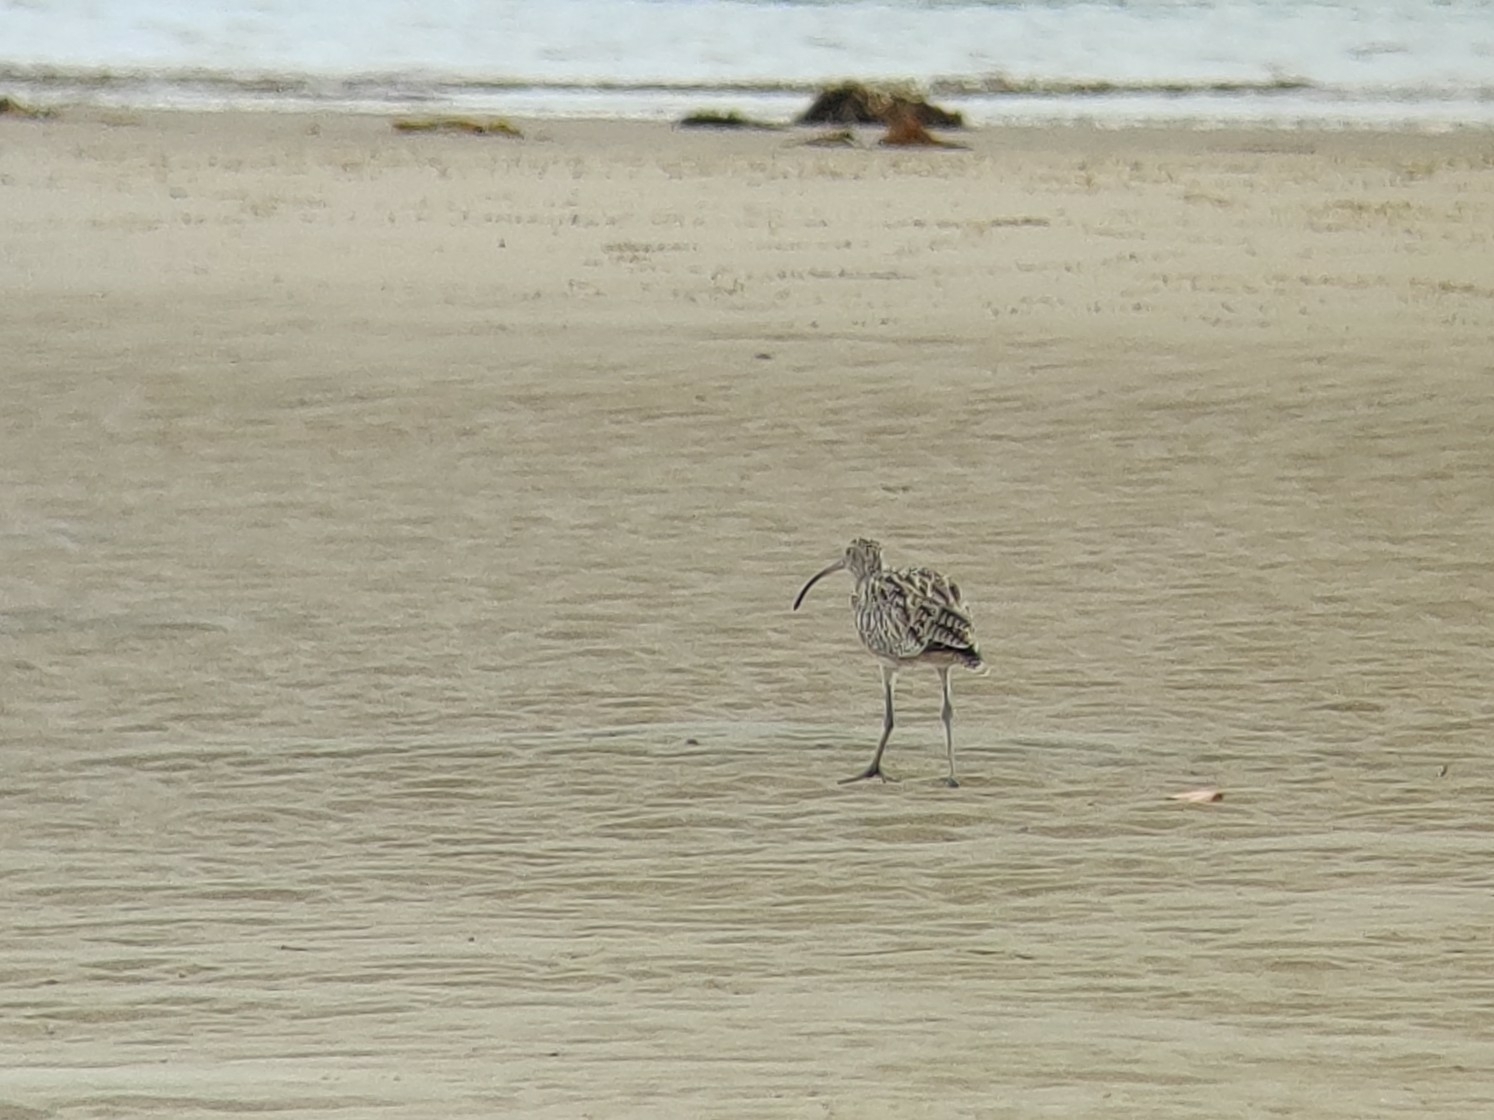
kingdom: Animalia
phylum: Chordata
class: Aves
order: Charadriiformes
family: Scolopacidae
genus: Numenius
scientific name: Numenius madagascariensis
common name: Far eastern curlew
